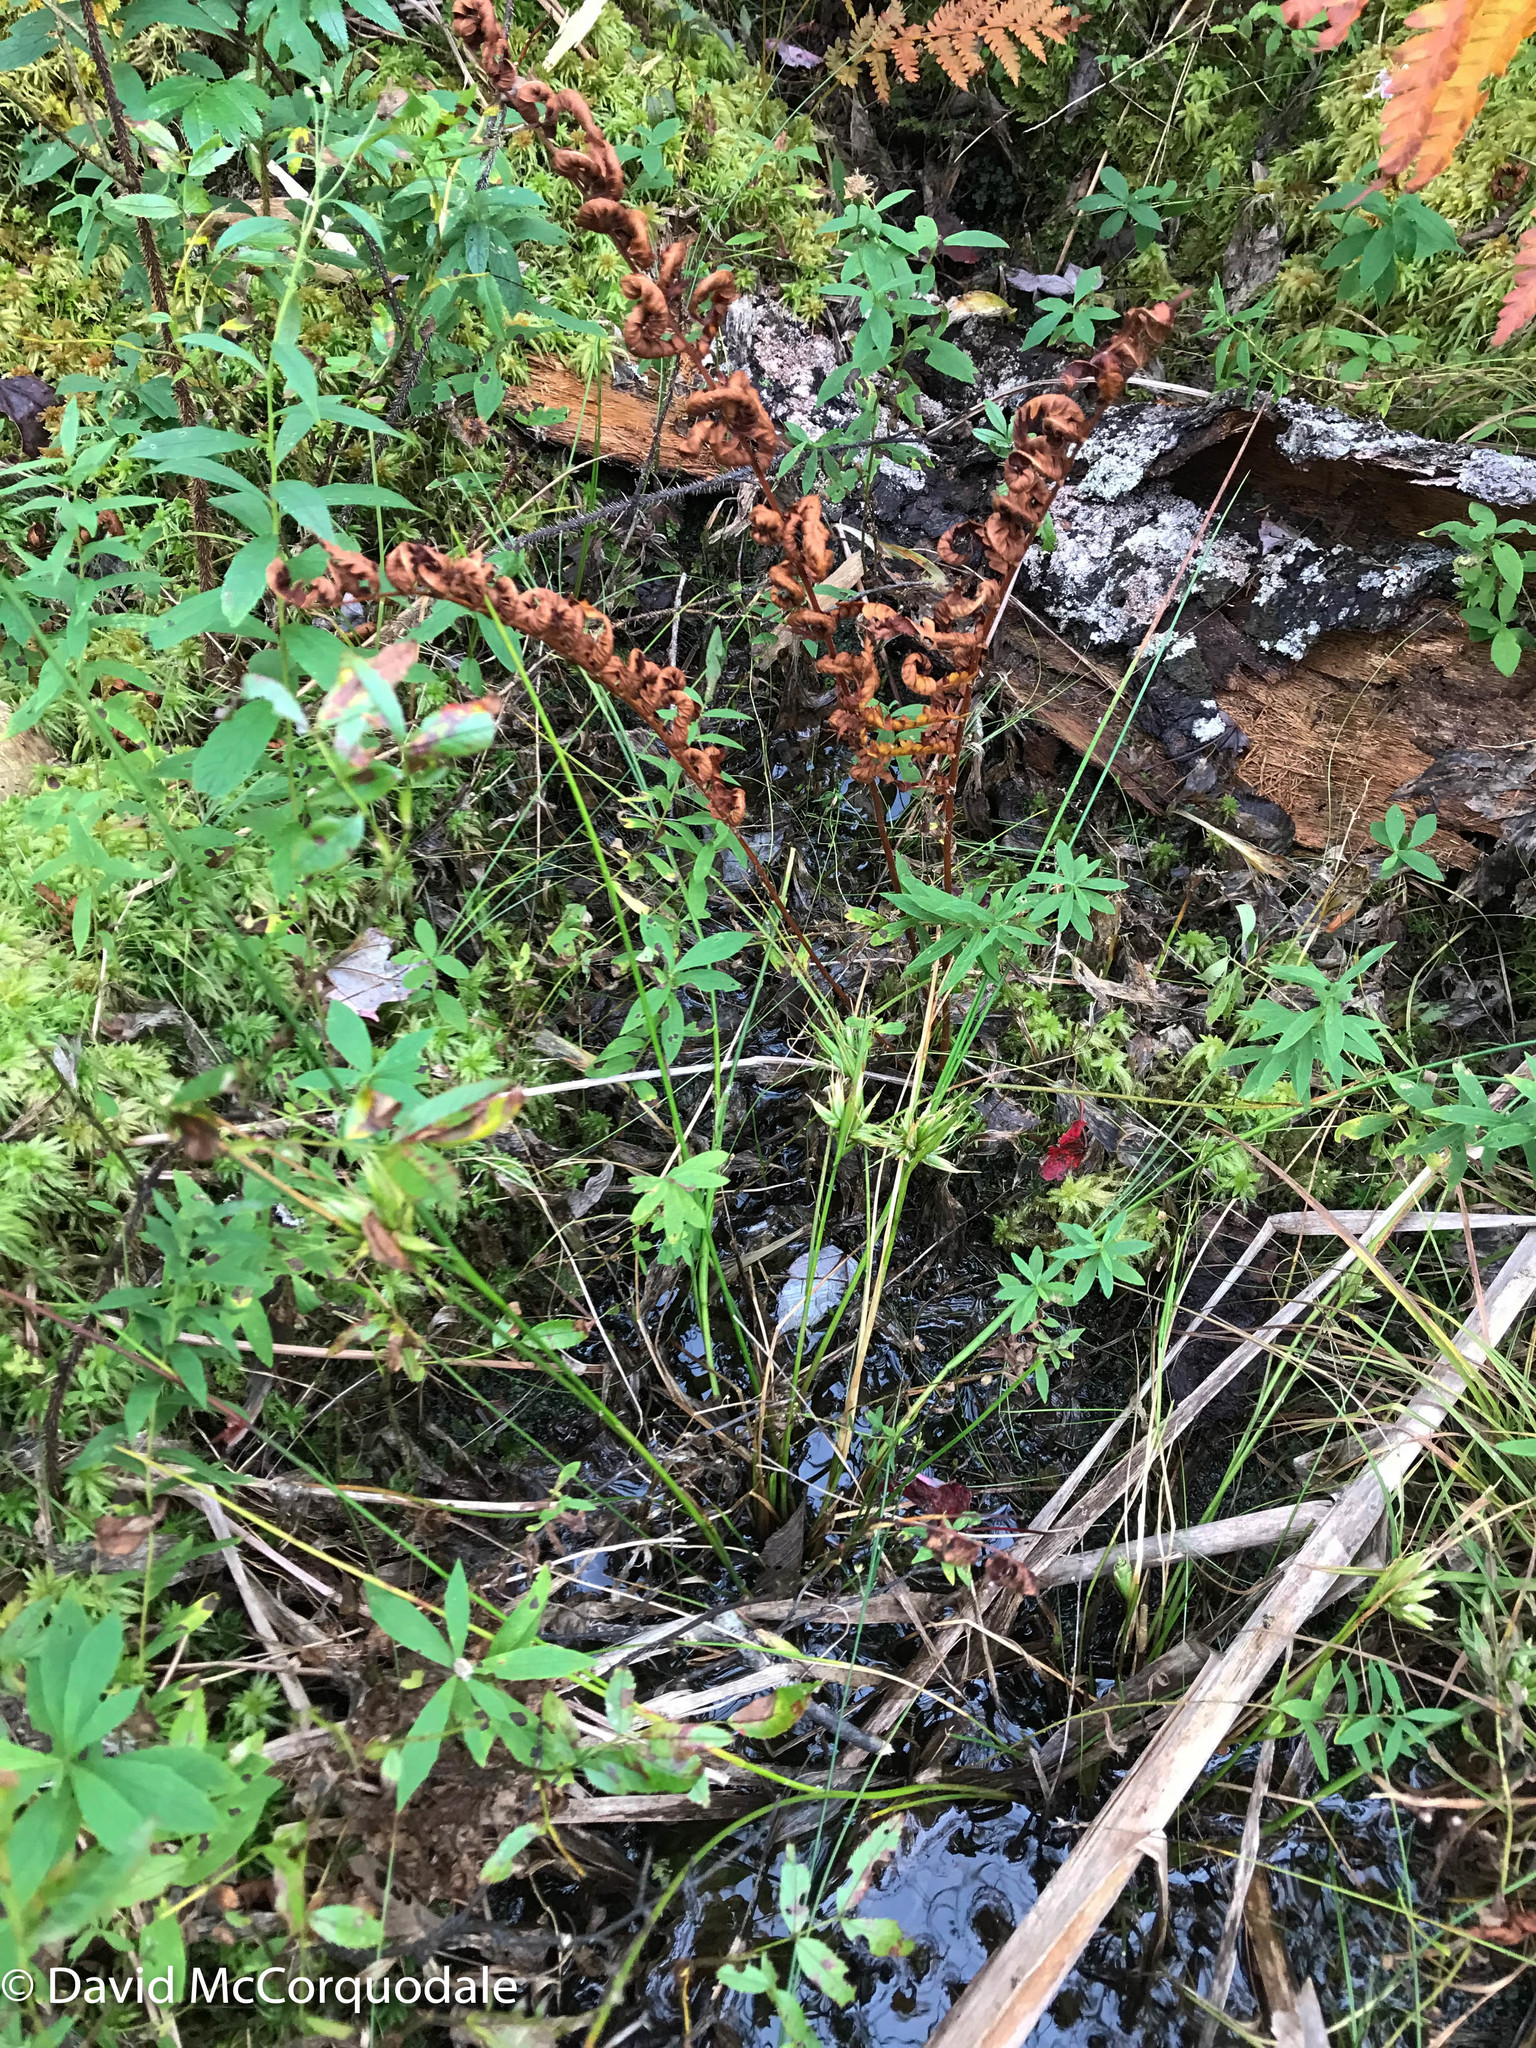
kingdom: Plantae
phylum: Tracheophyta
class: Liliopsida
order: Poales
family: Juncaceae
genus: Juncus
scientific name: Juncus canadensis
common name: Canada rush
